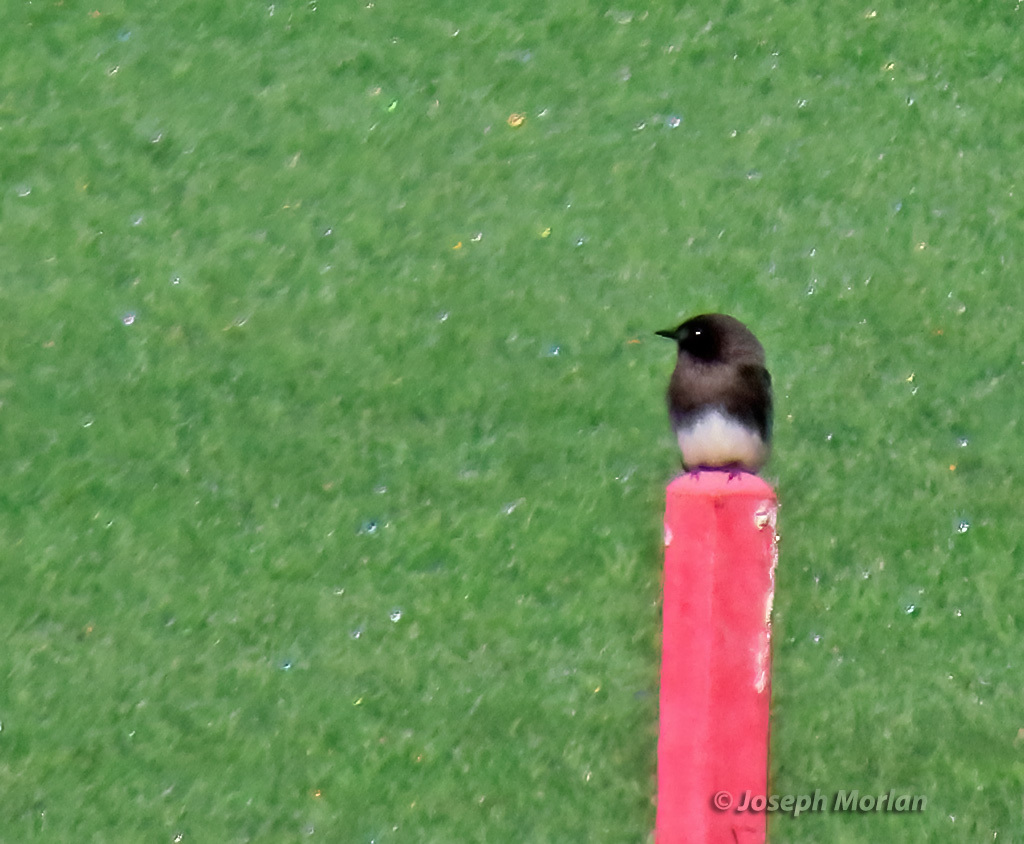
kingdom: Animalia
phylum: Chordata
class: Aves
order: Passeriformes
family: Tyrannidae
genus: Sayornis
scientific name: Sayornis nigricans
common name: Black phoebe
